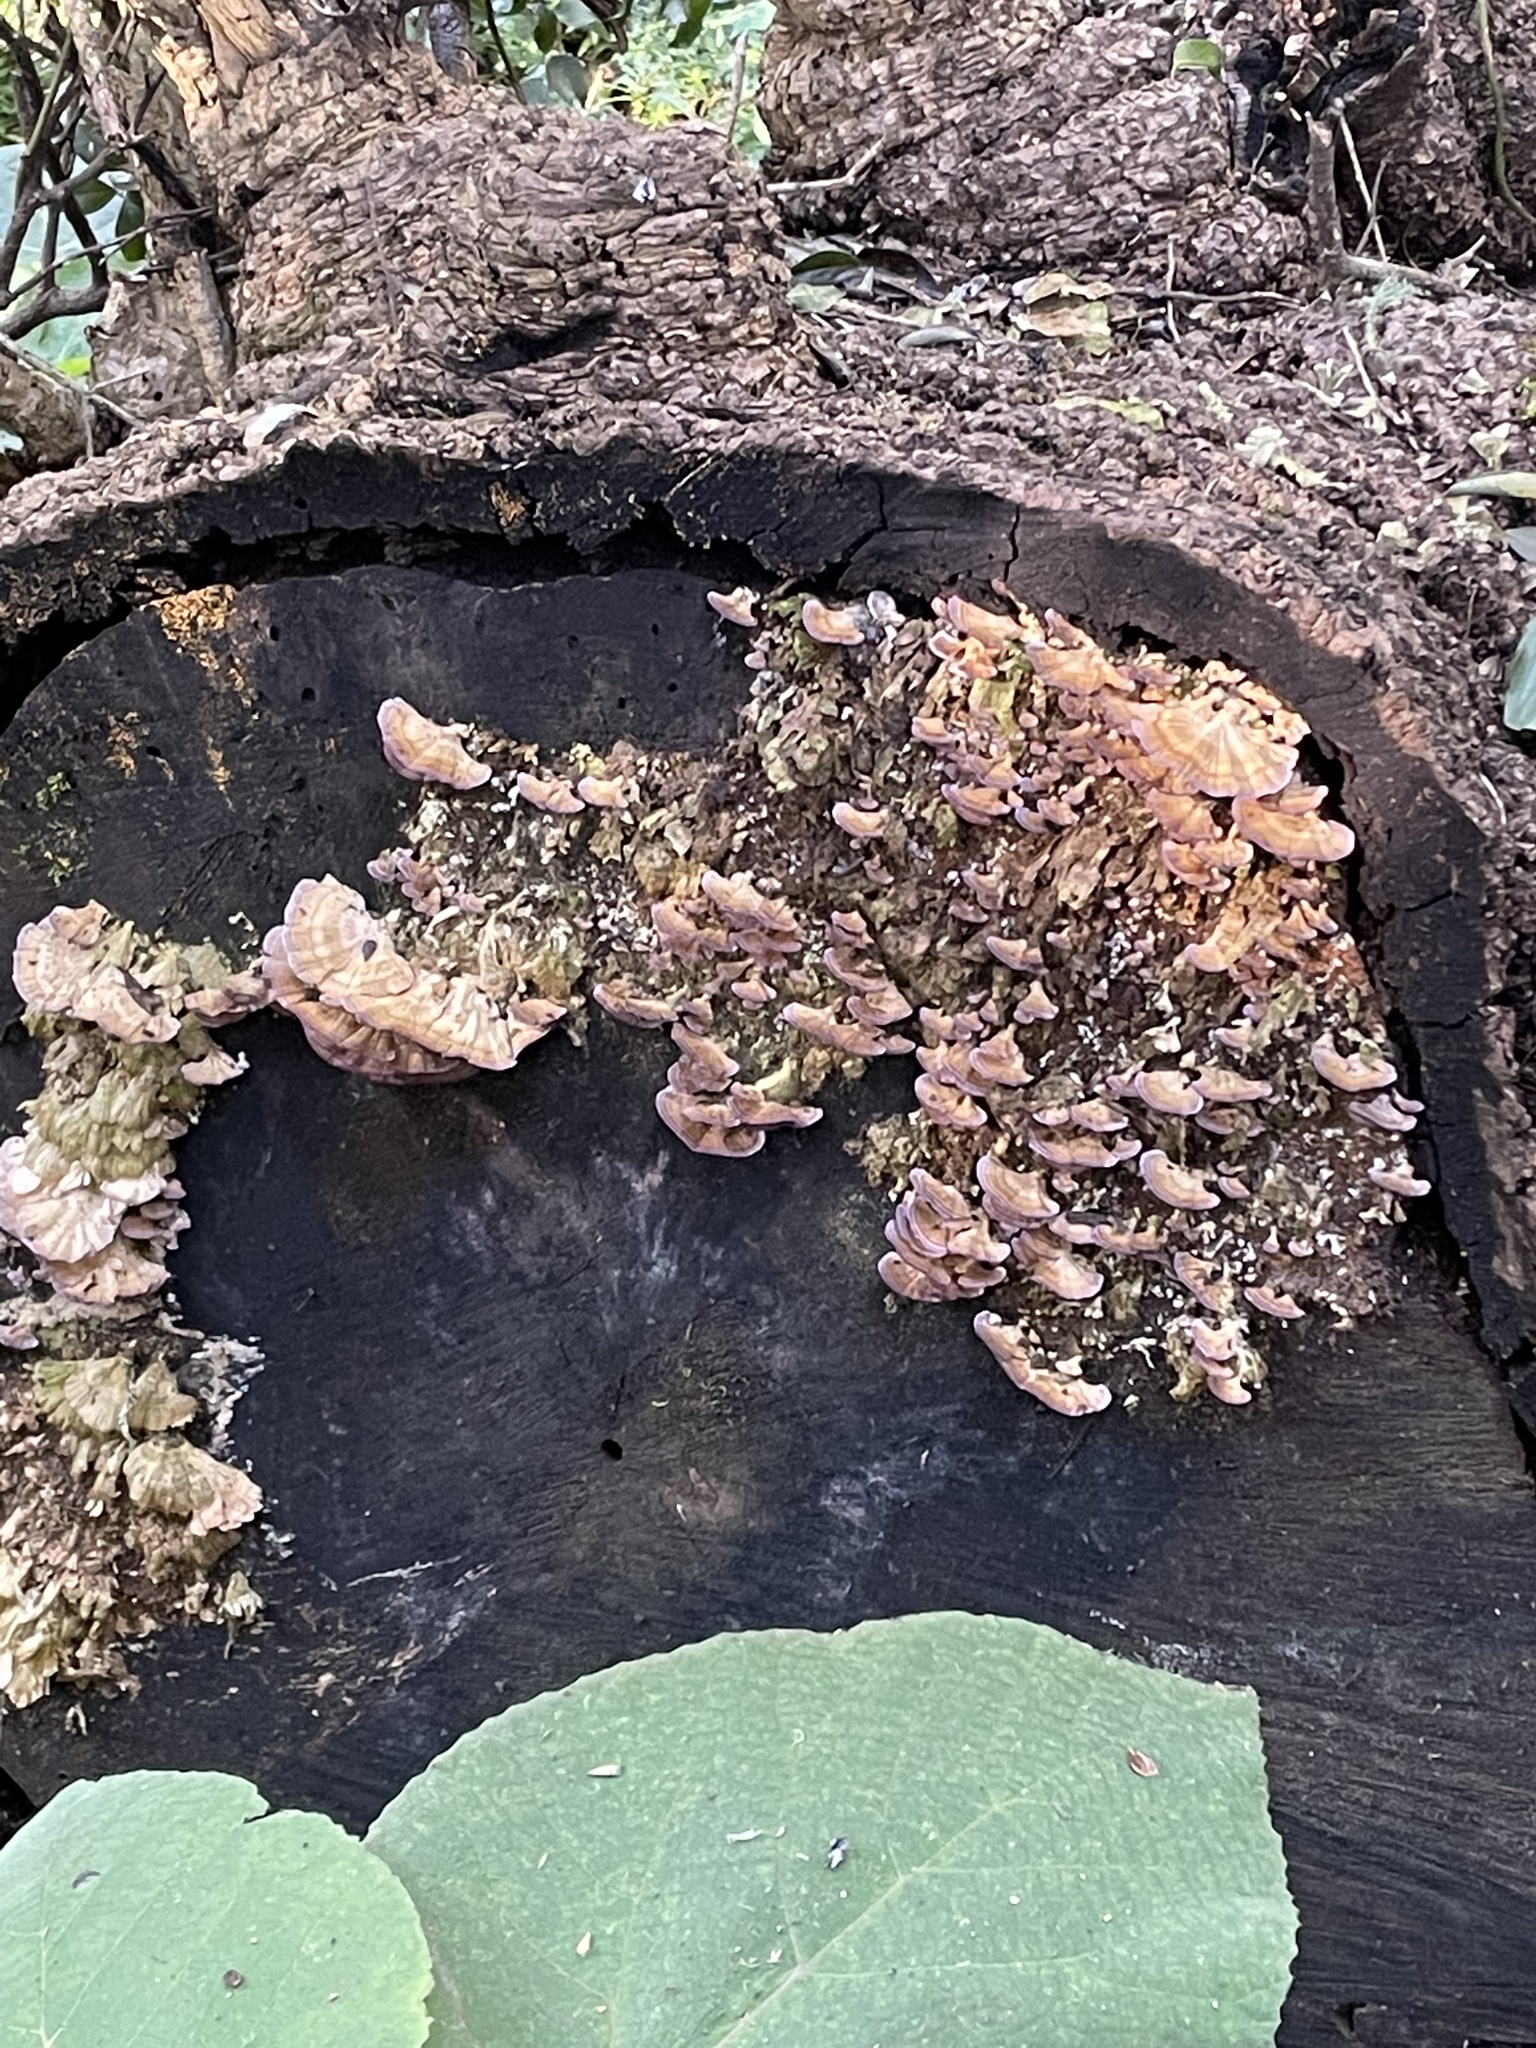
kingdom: Fungi
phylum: Basidiomycota
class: Agaricomycetes
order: Hymenochaetales
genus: Trichaptum
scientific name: Trichaptum biforme
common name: Violet-toothed polypore
